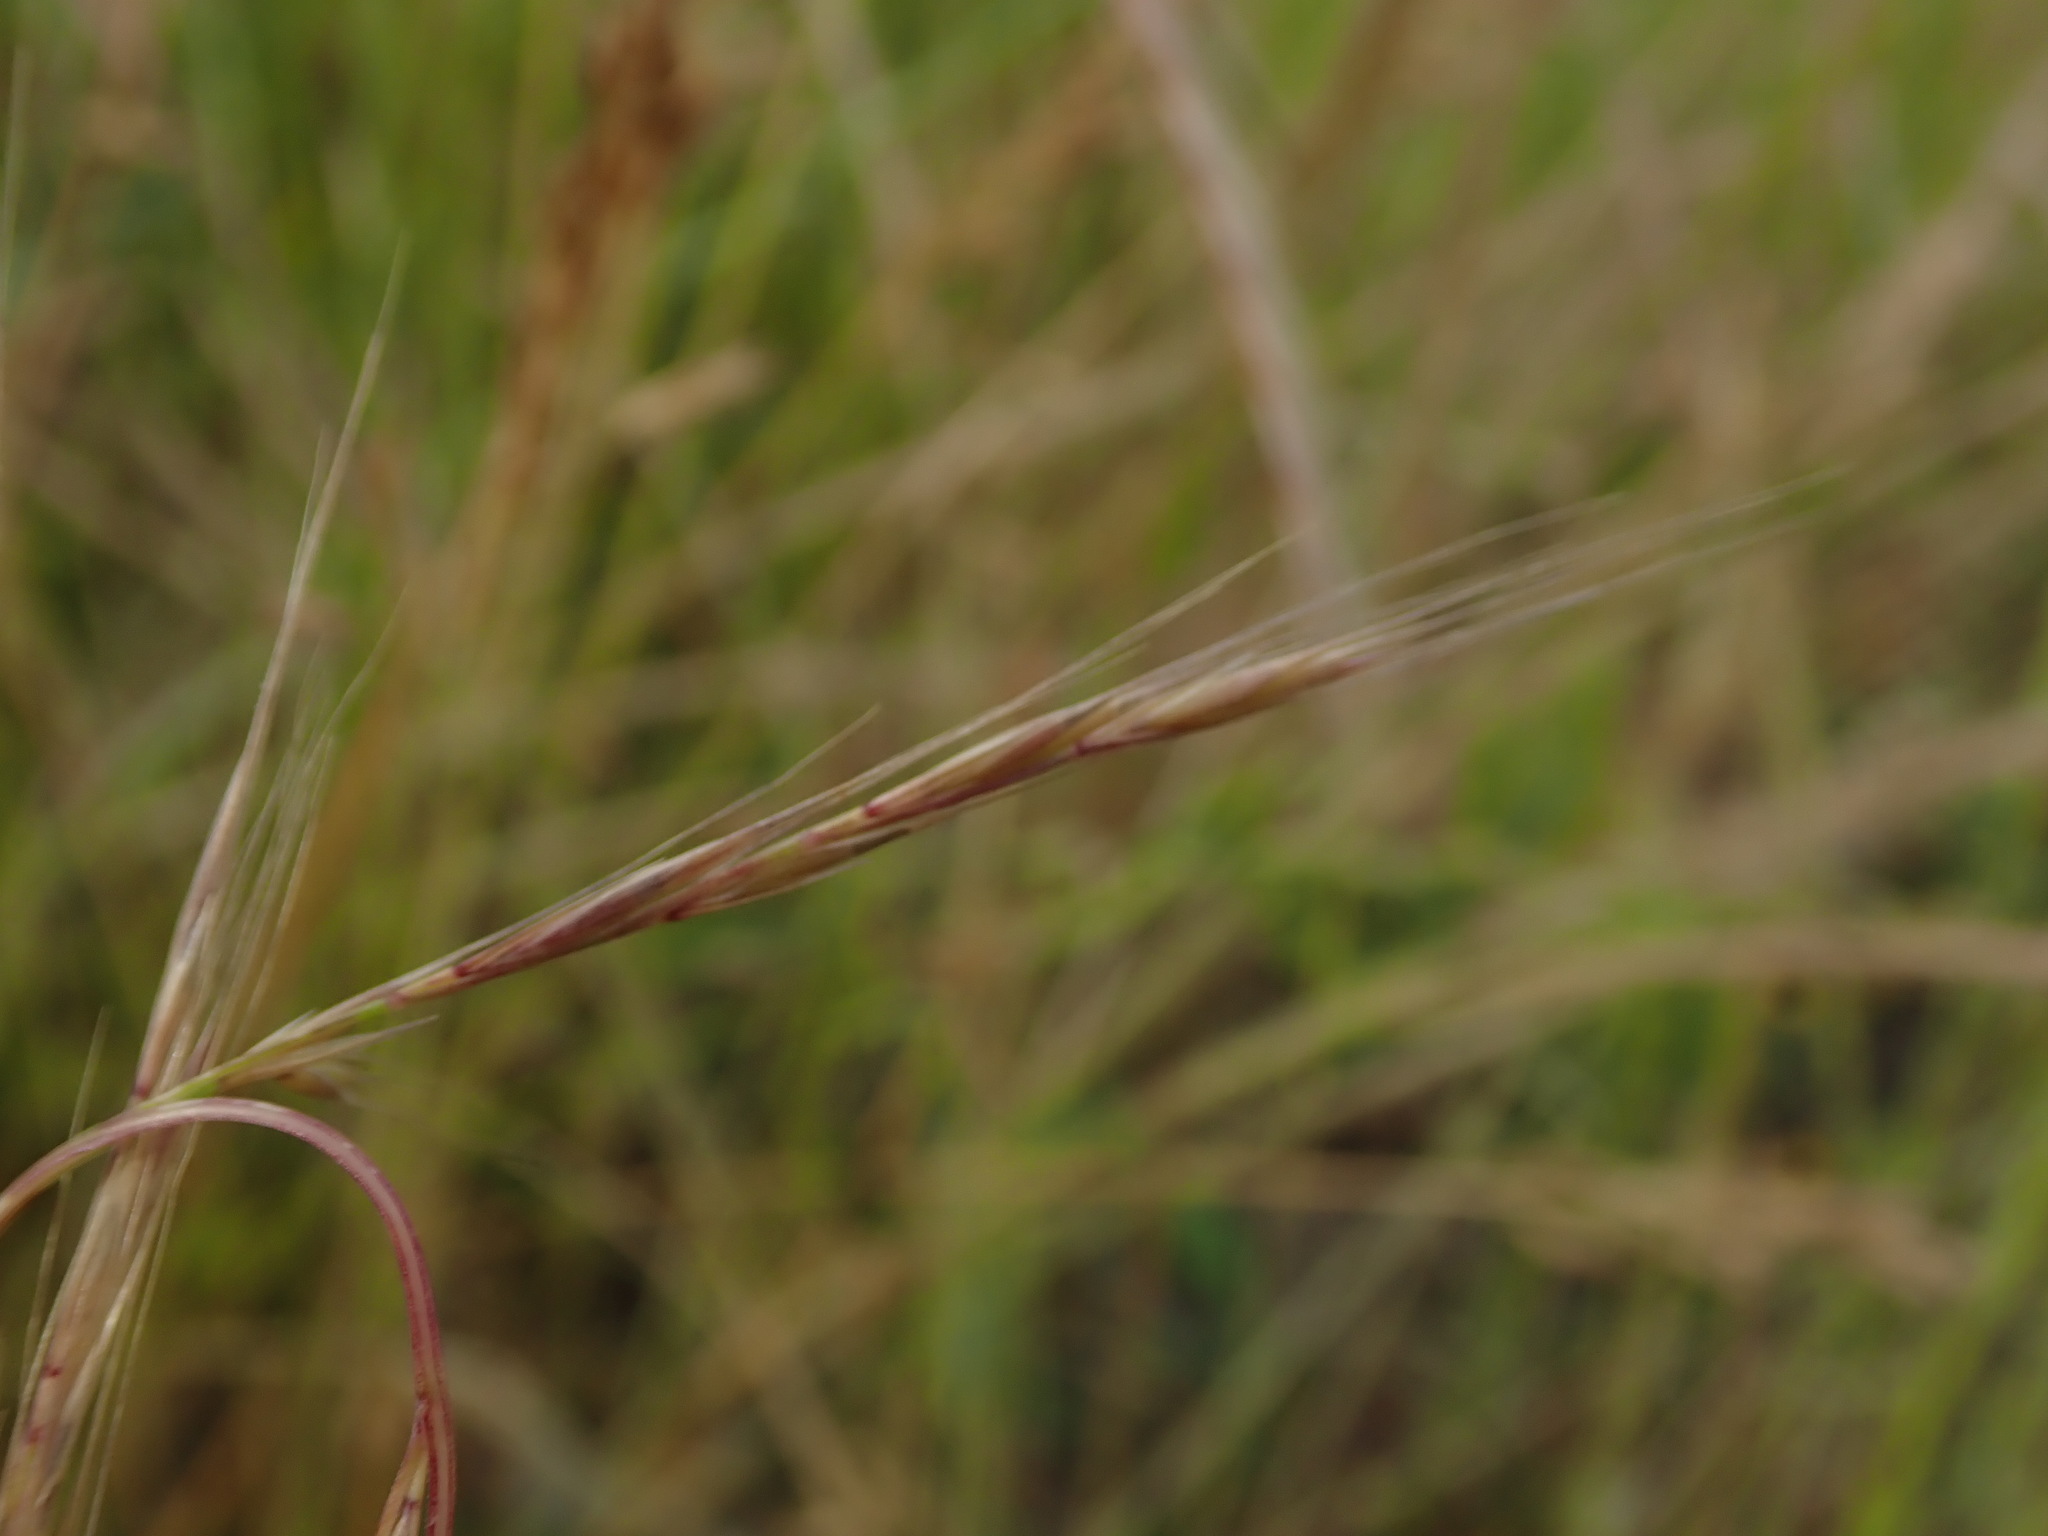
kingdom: Plantae
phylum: Tracheophyta
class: Liliopsida
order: Poales
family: Poaceae
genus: Festuca
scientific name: Festuca myuros
